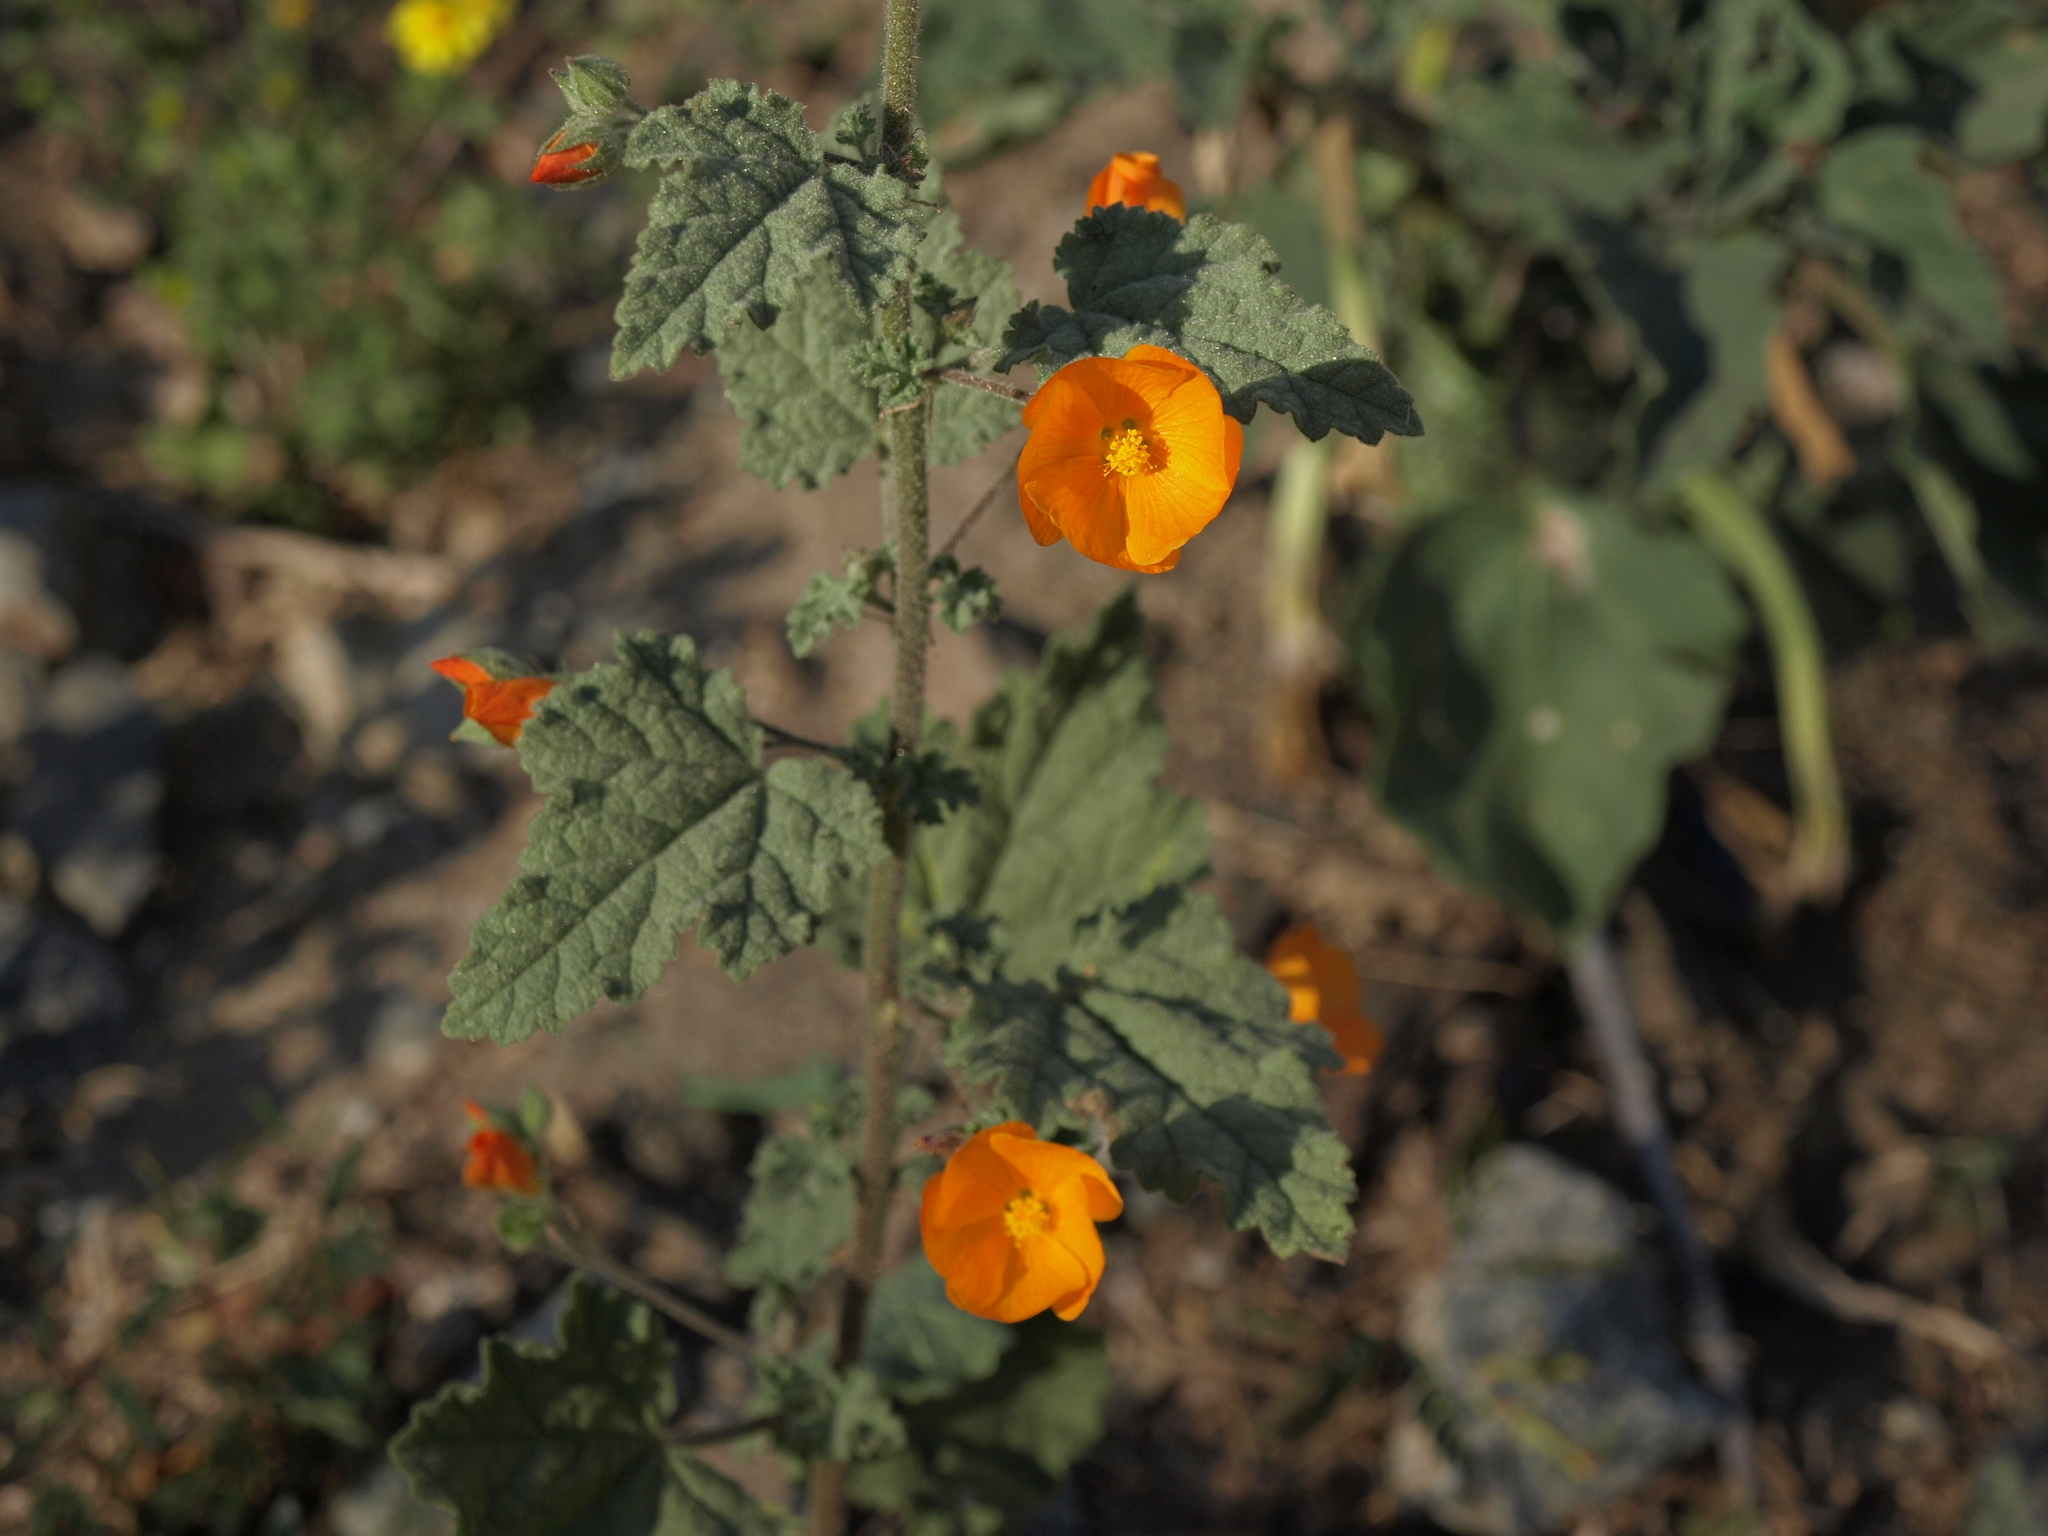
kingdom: Plantae
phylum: Tracheophyta
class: Magnoliopsida
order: Malvales
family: Malvaceae
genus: Sphaeralcea
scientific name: Sphaeralcea coulteri
